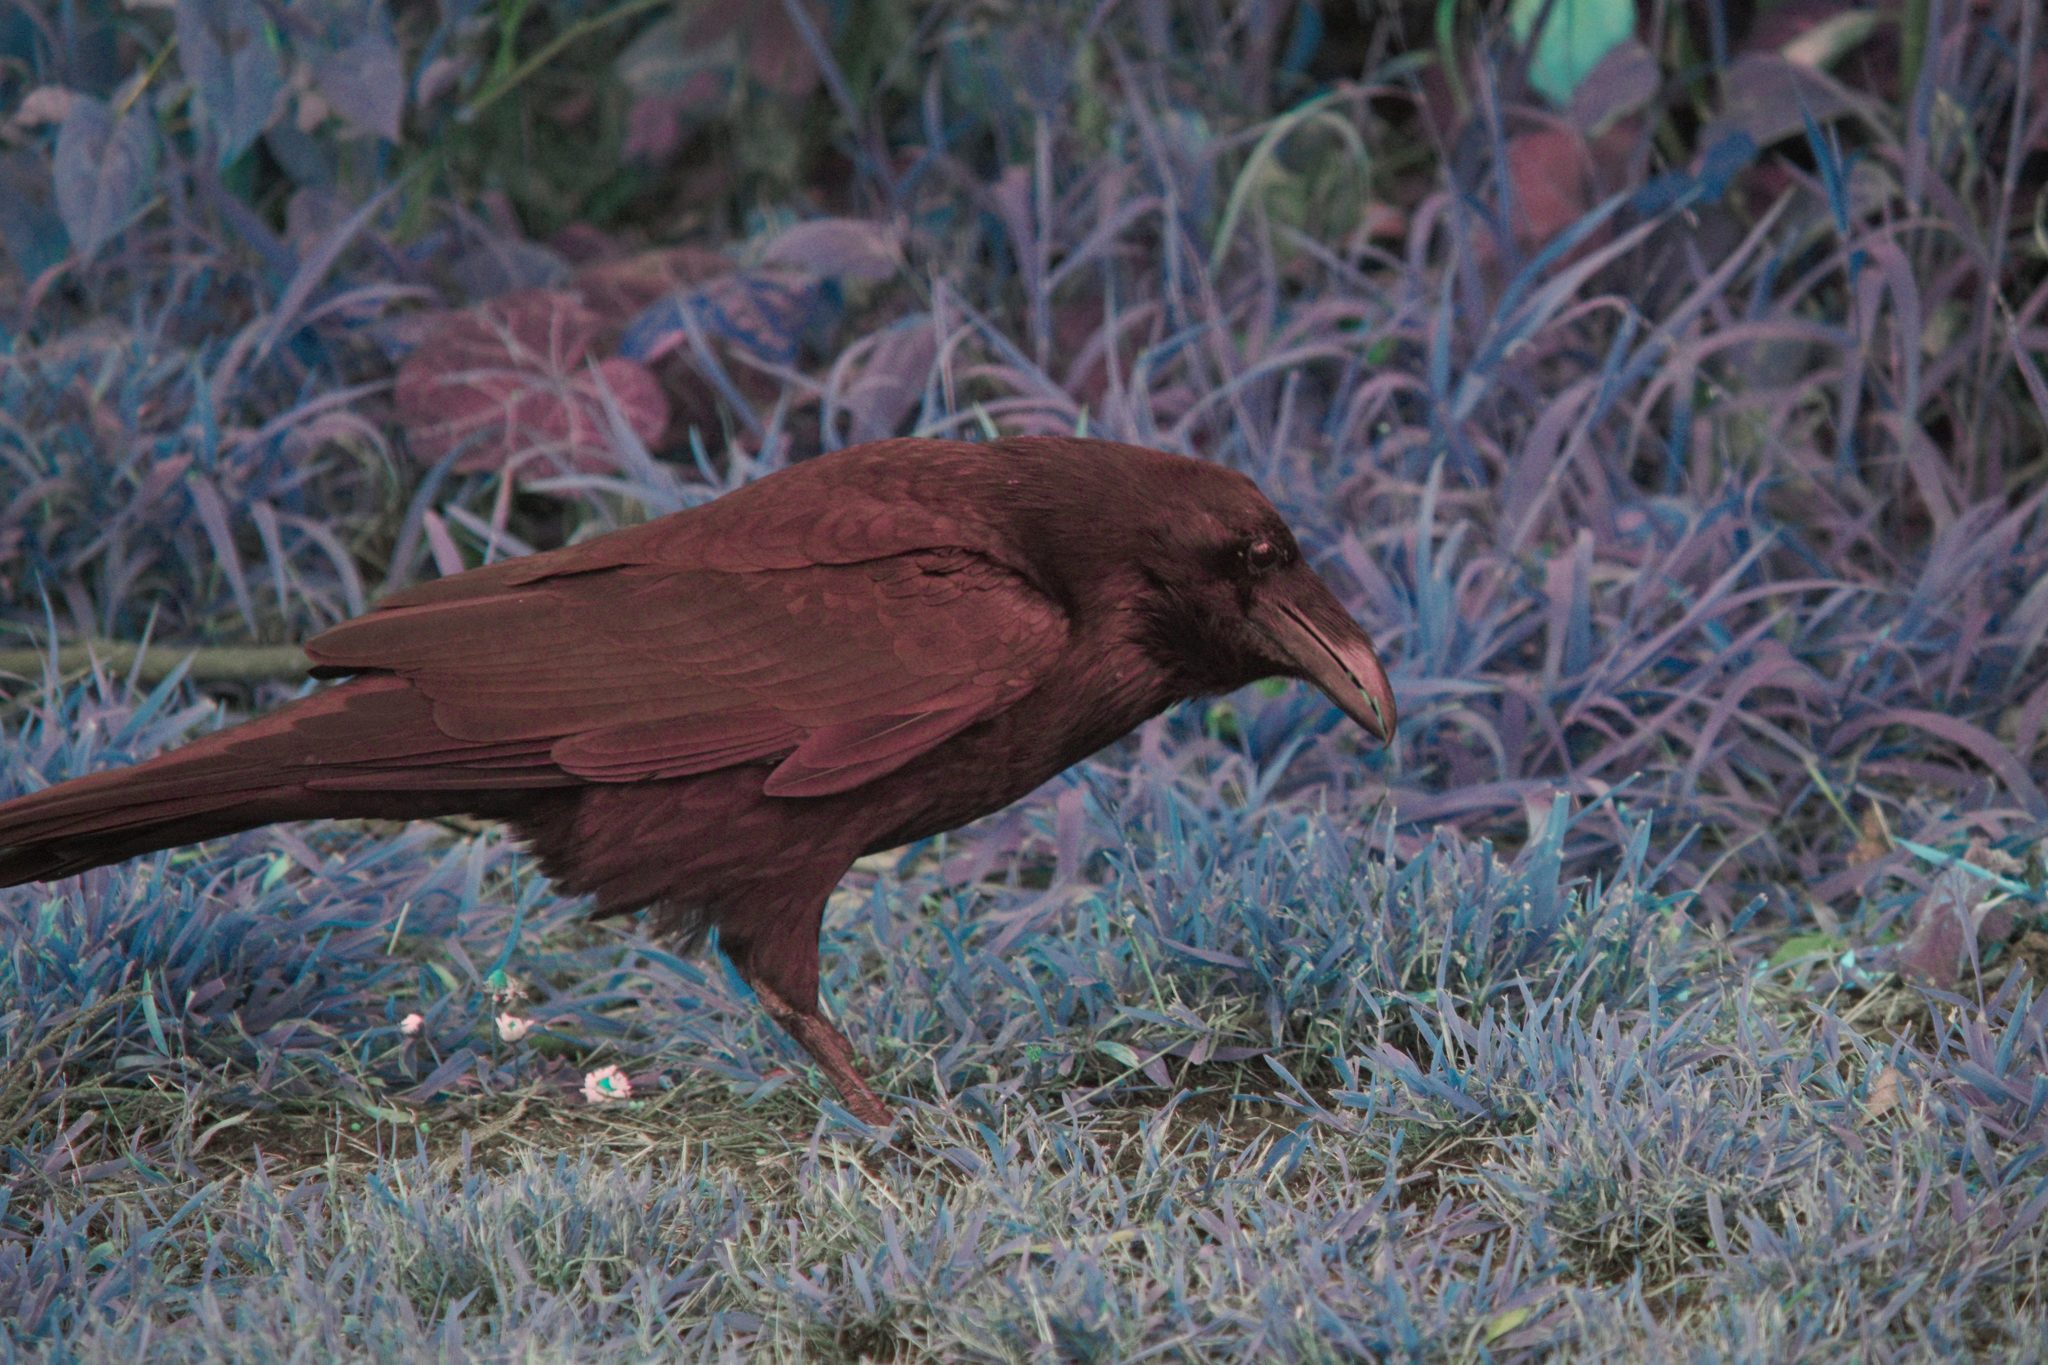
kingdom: Animalia
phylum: Chordata
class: Aves
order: Passeriformes
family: Corvidae
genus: Corvus
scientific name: Corvus corax
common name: Common raven
